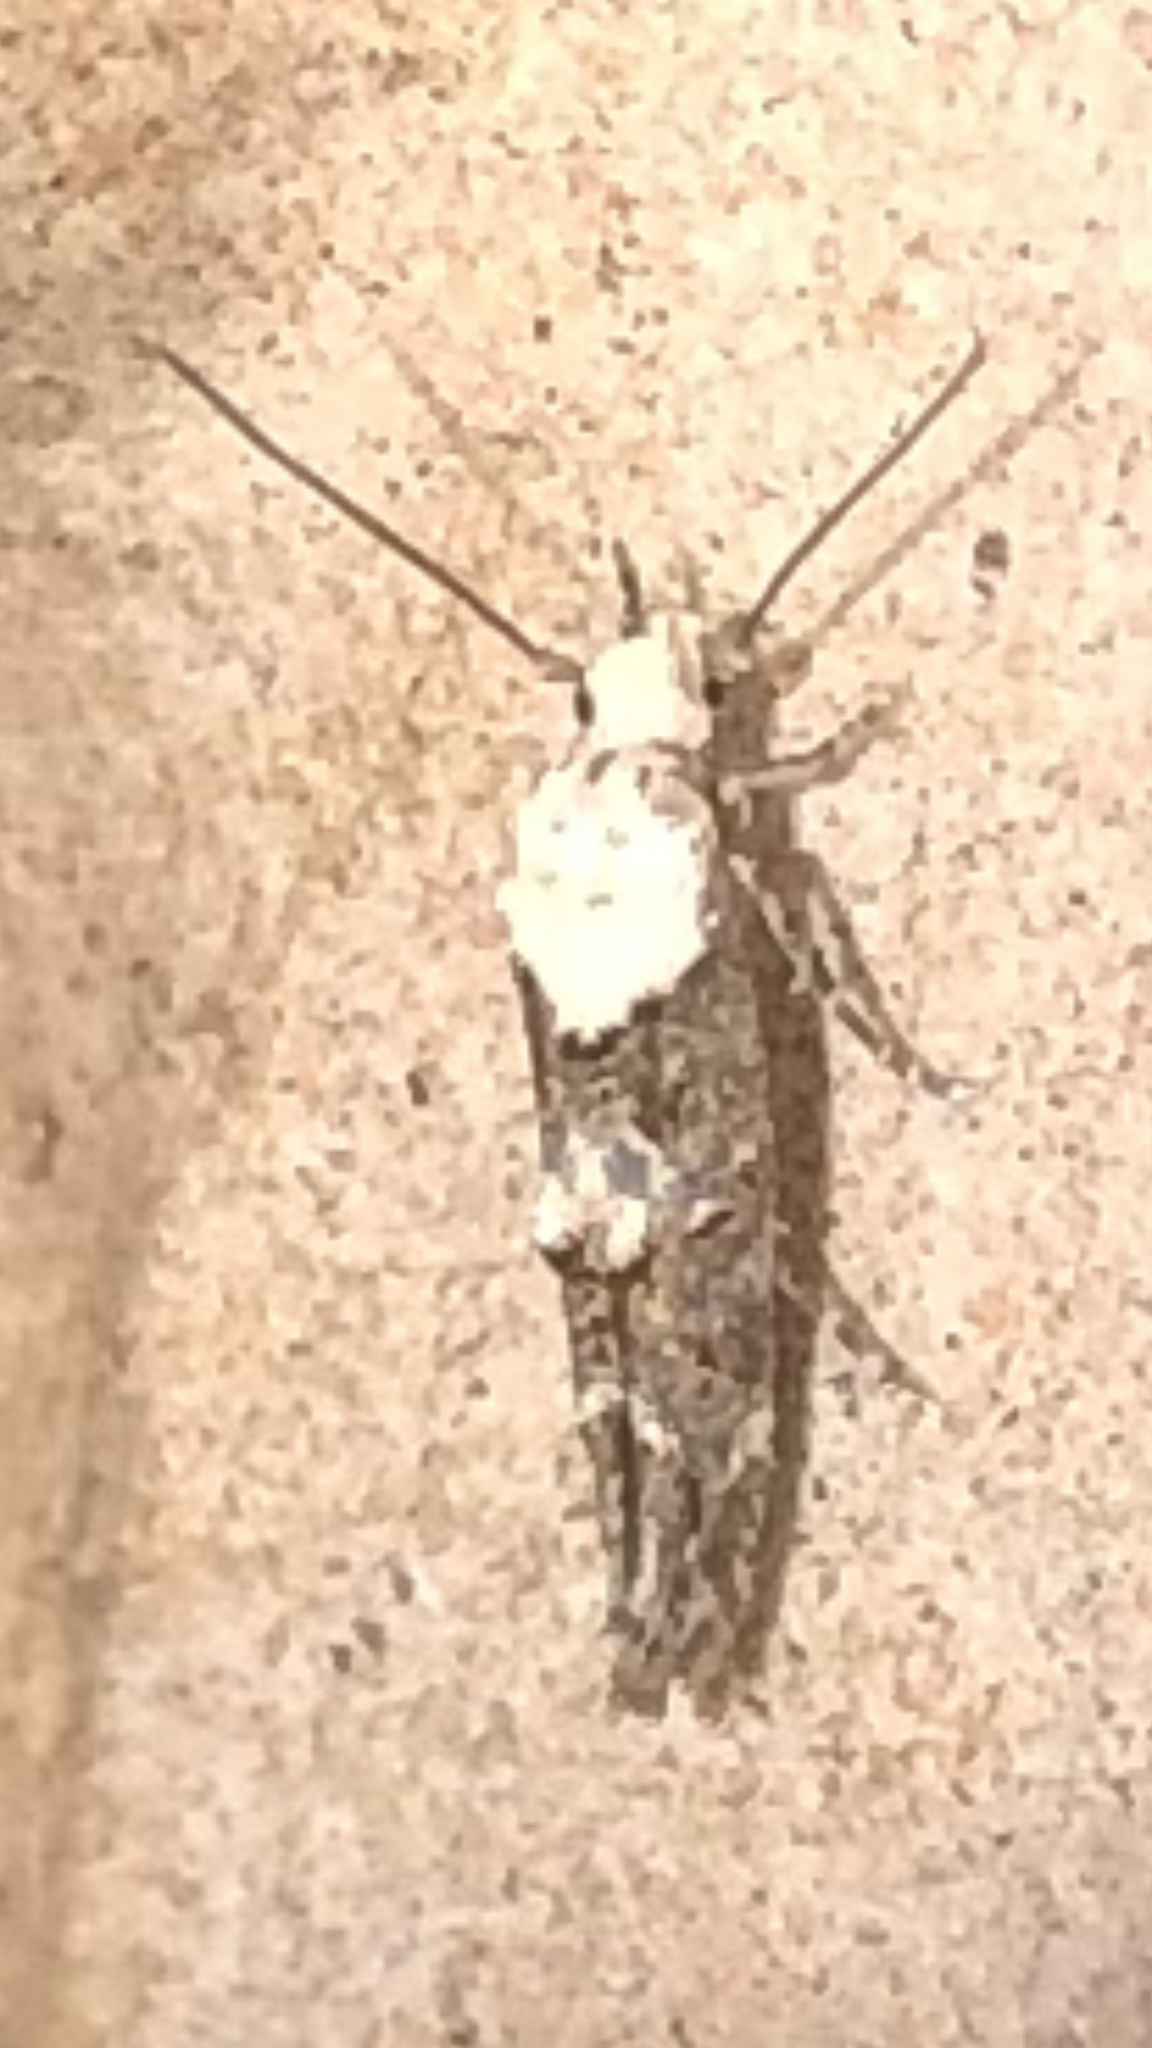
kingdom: Animalia
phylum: Arthropoda
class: Insecta
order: Lepidoptera
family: Momphidae
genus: Mompha
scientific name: Mompha albocapitella
